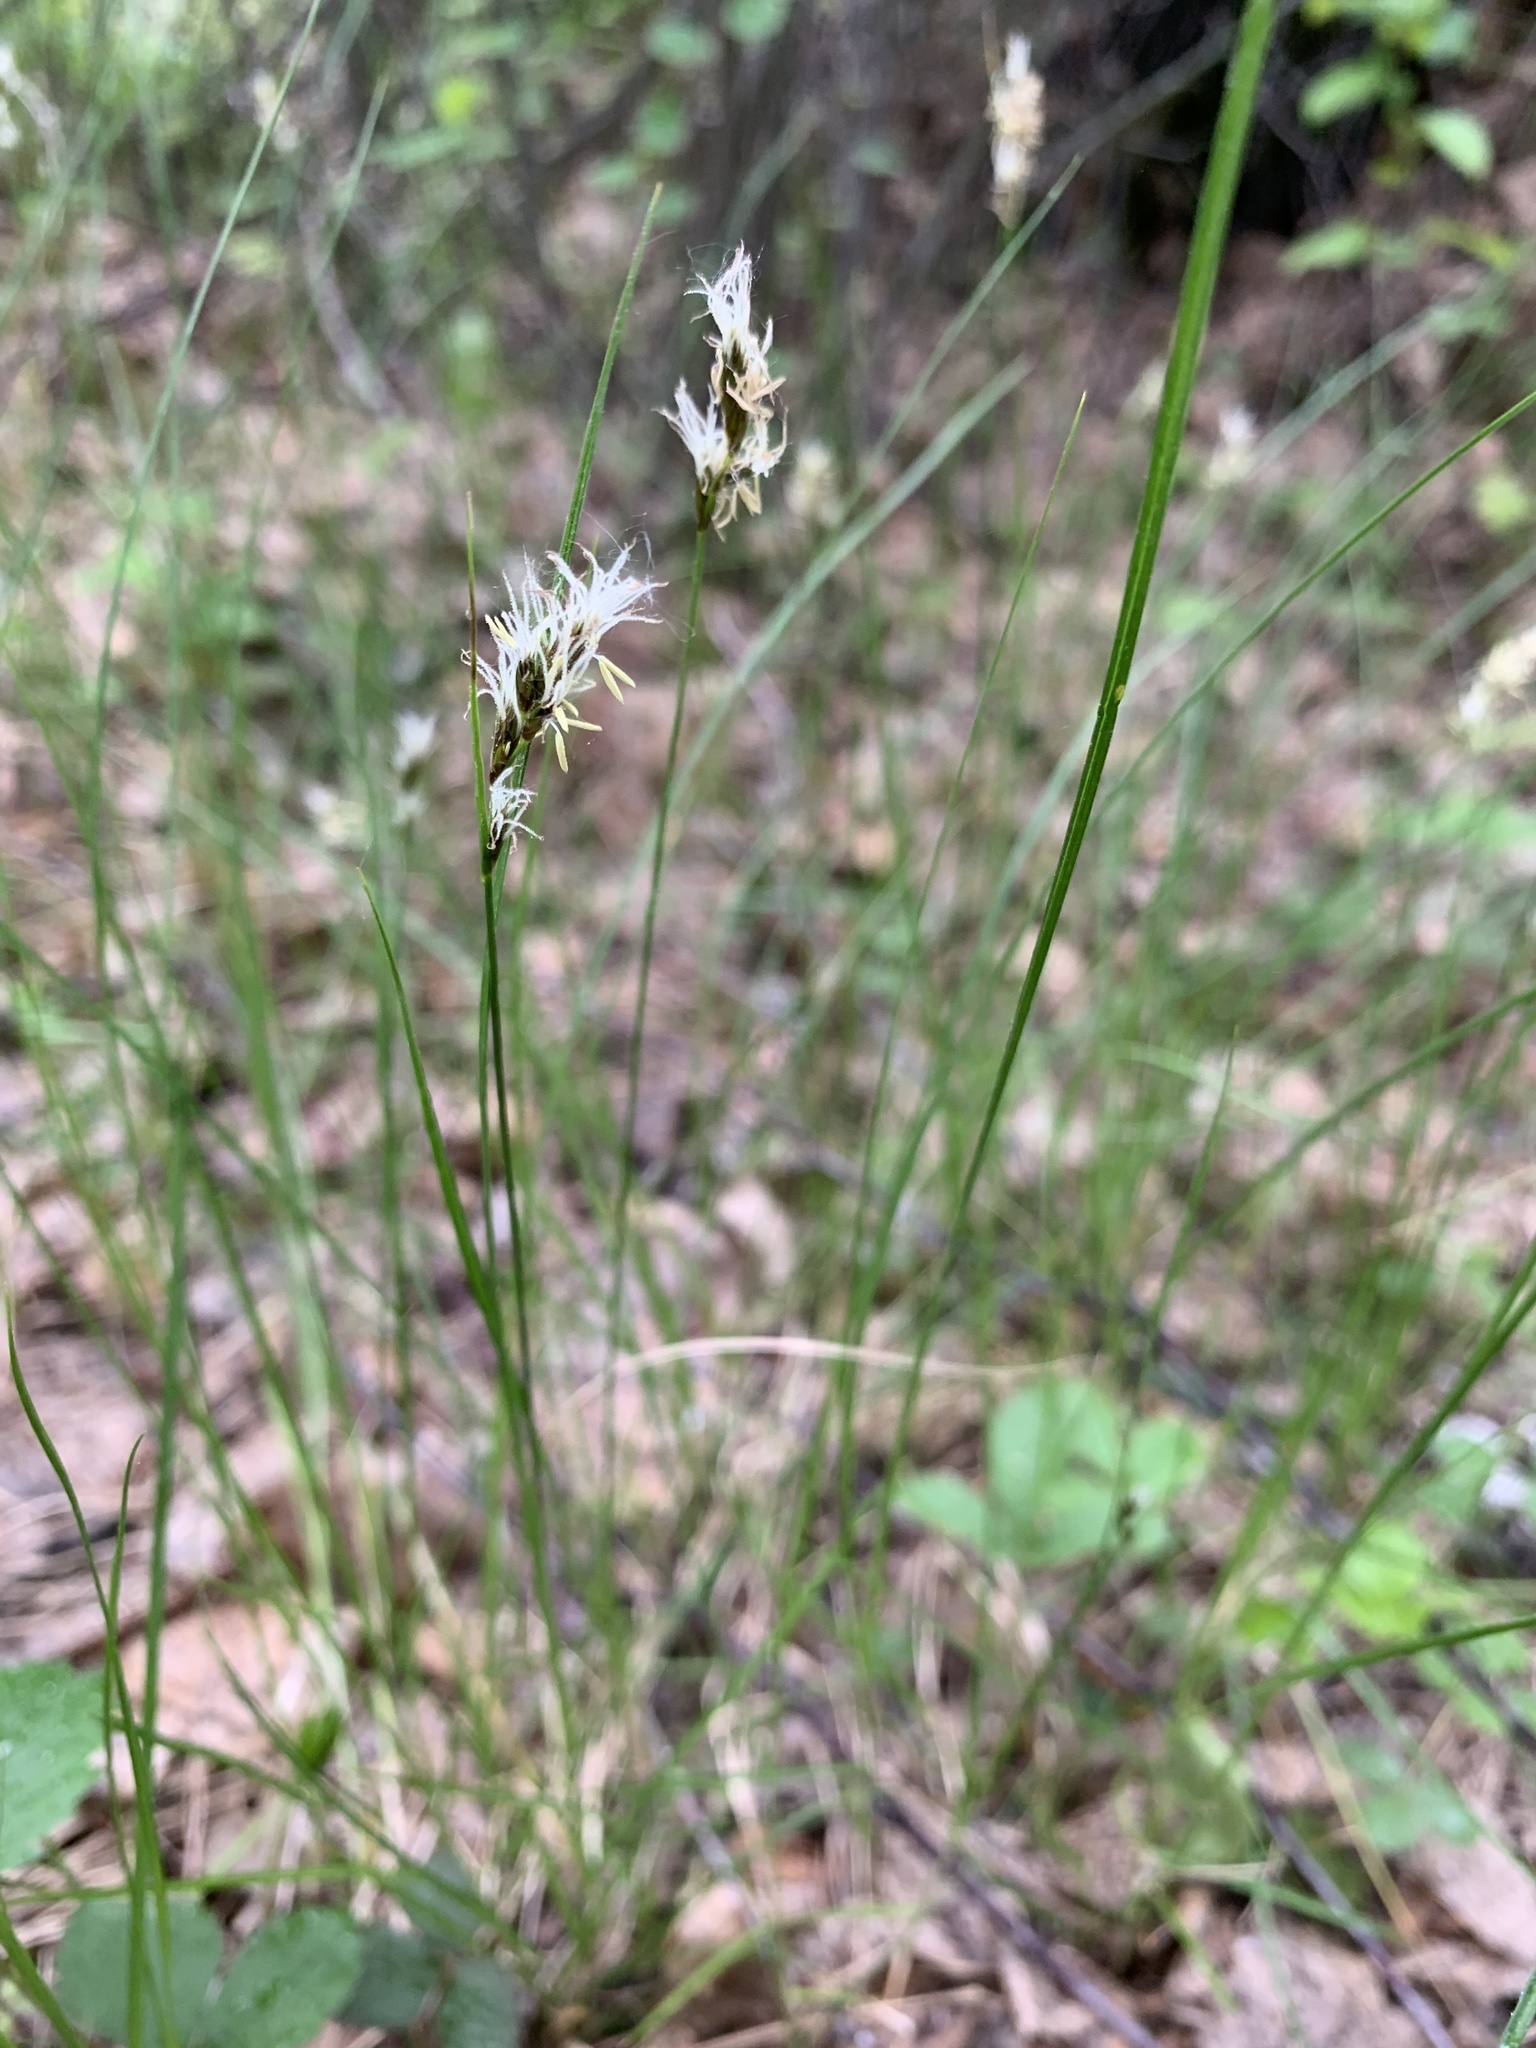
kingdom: Plantae
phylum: Tracheophyta
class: Liliopsida
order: Poales
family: Cyperaceae
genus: Carex
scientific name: Carex praecox
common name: Early sedge
